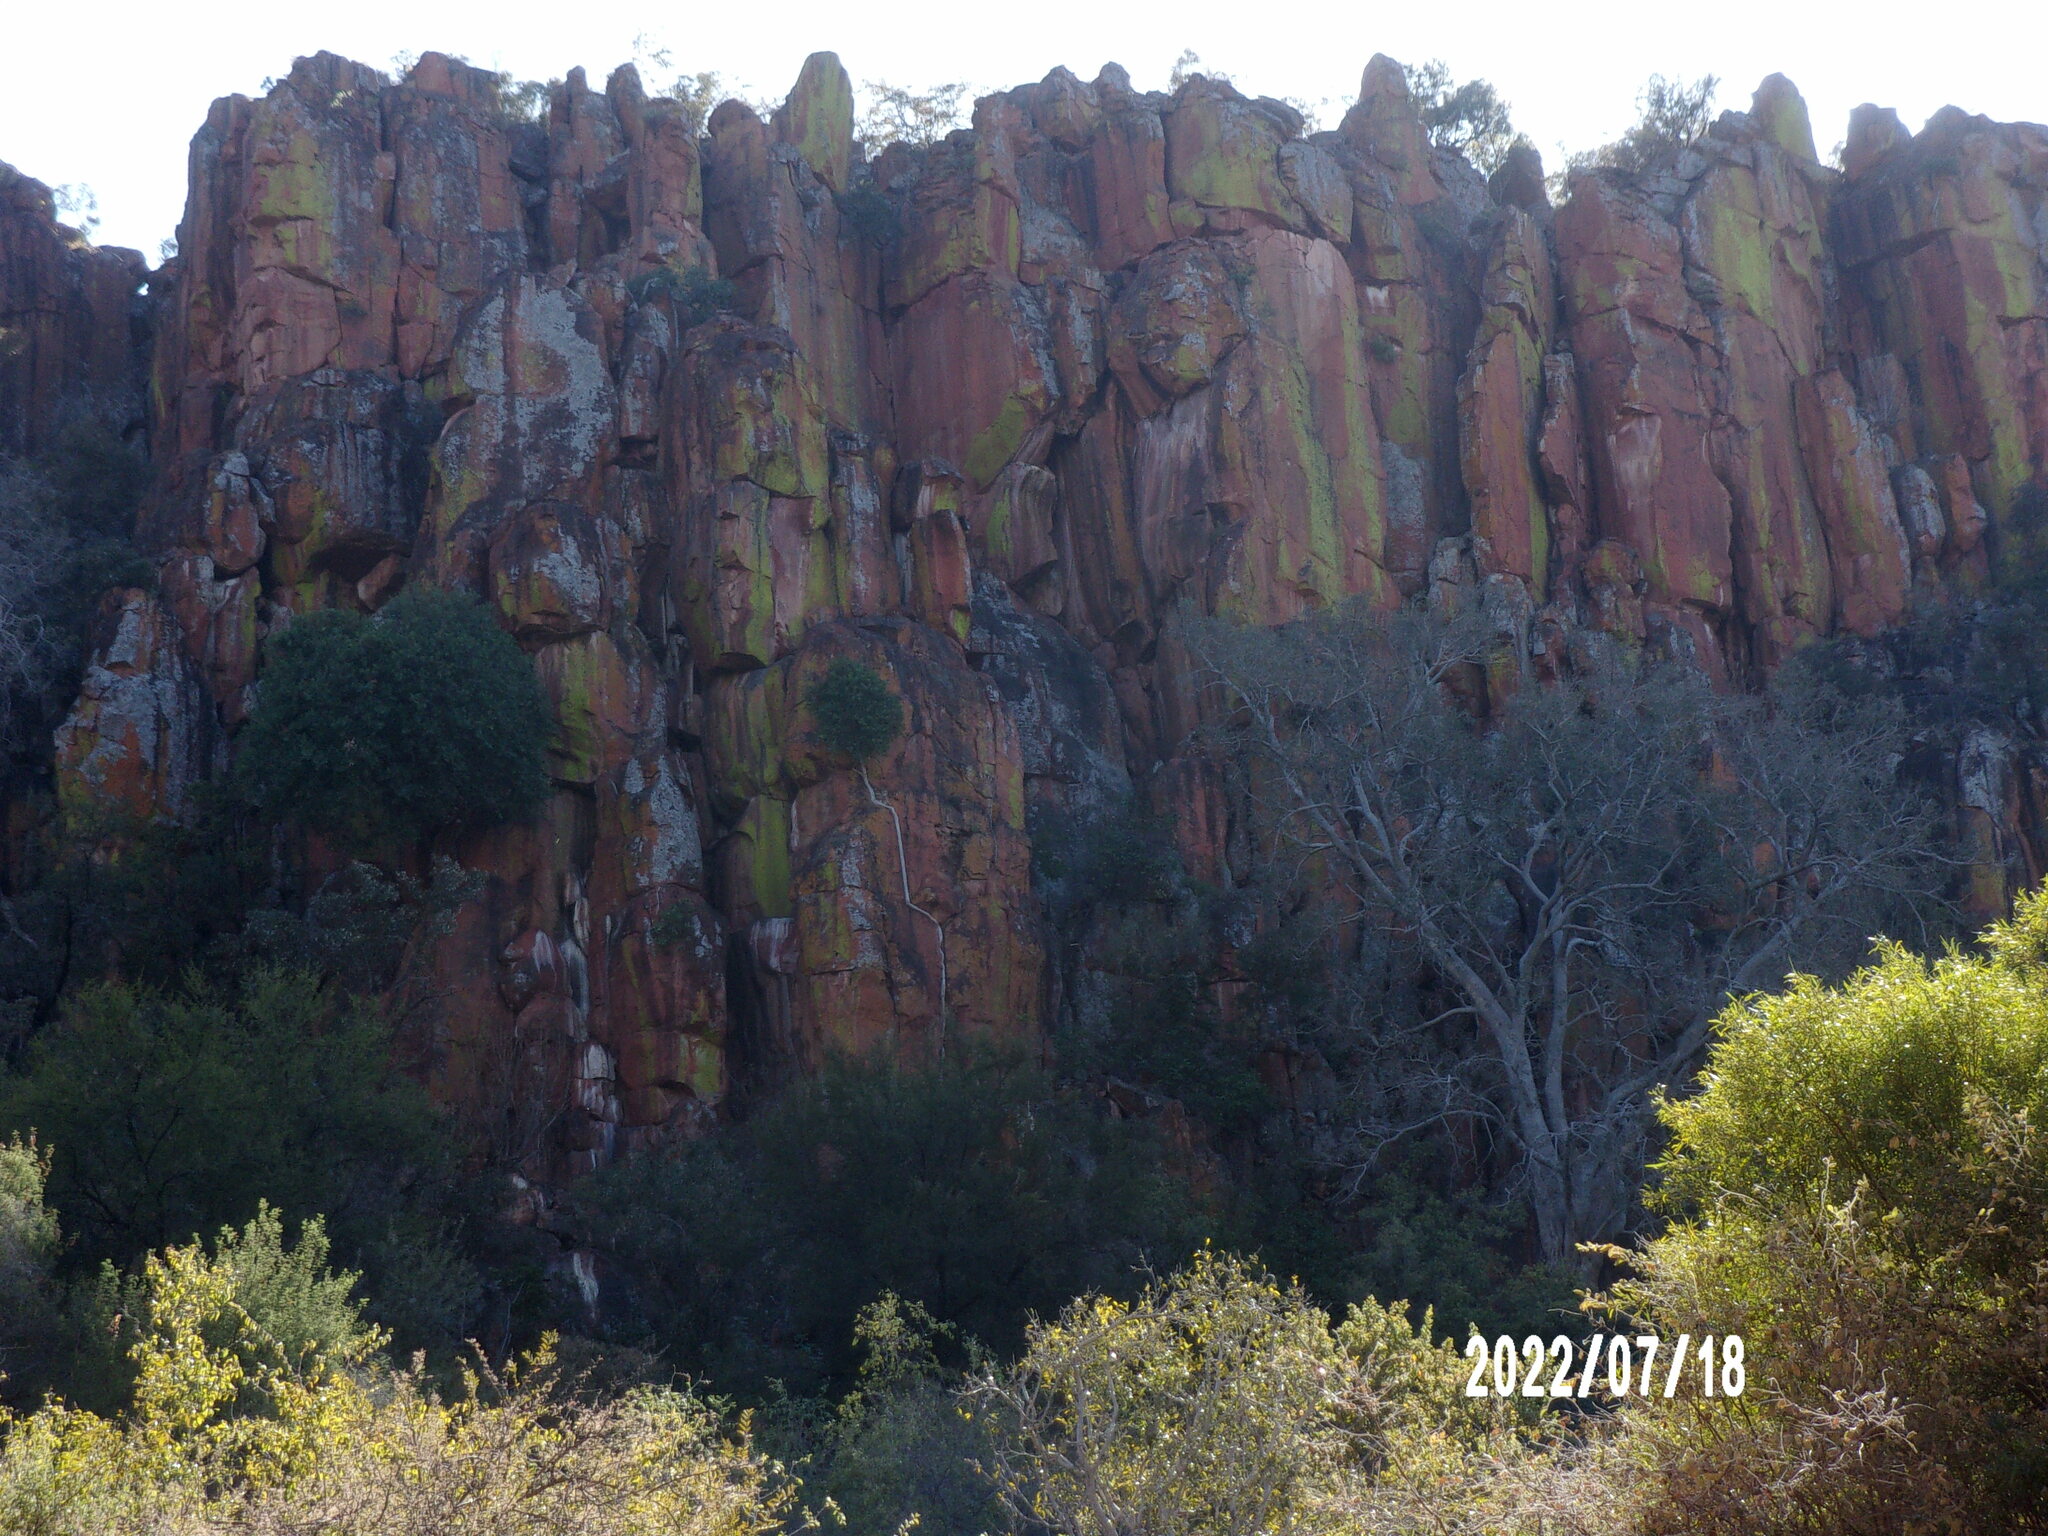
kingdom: Plantae
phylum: Tracheophyta
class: Magnoliopsida
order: Rosales
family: Moraceae
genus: Ficus
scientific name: Ficus ilicina
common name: Laurel rock fig
